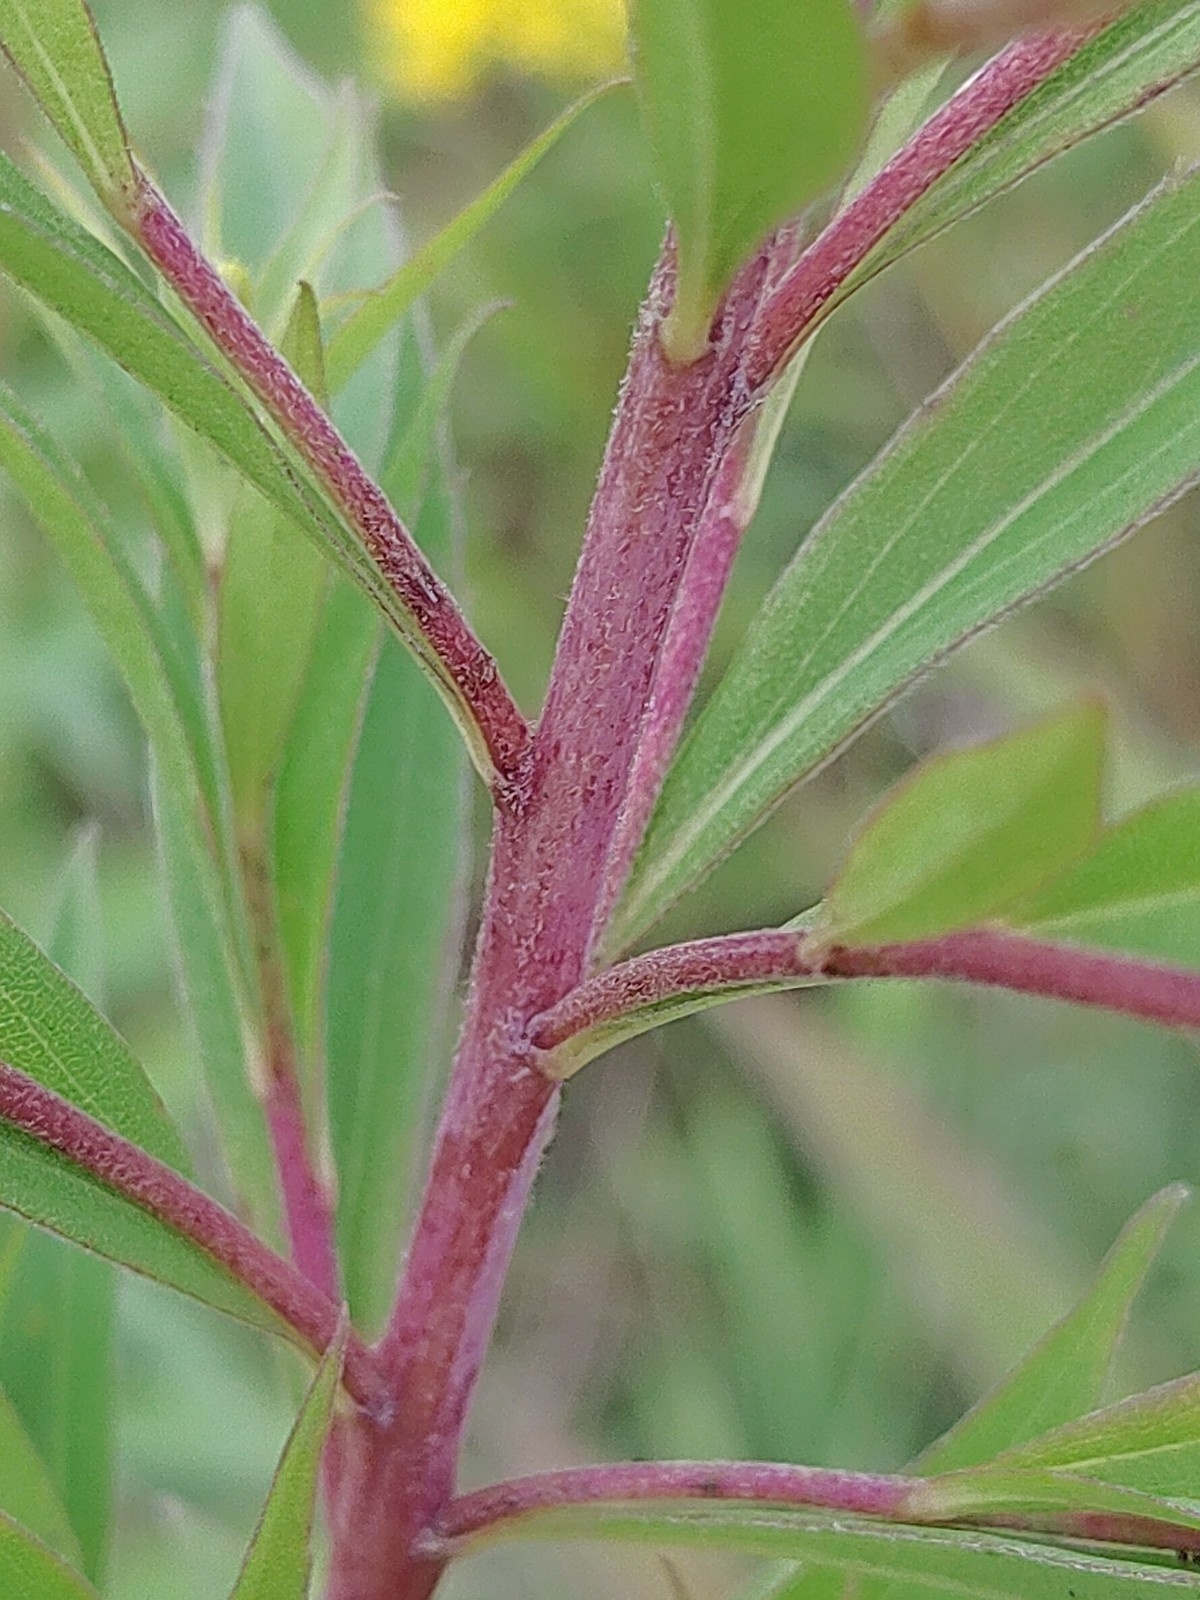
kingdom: Plantae
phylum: Tracheophyta
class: Magnoliopsida
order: Asterales
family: Asteraceae
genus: Solidago
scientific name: Solidago canadensis
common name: Canada goldenrod
